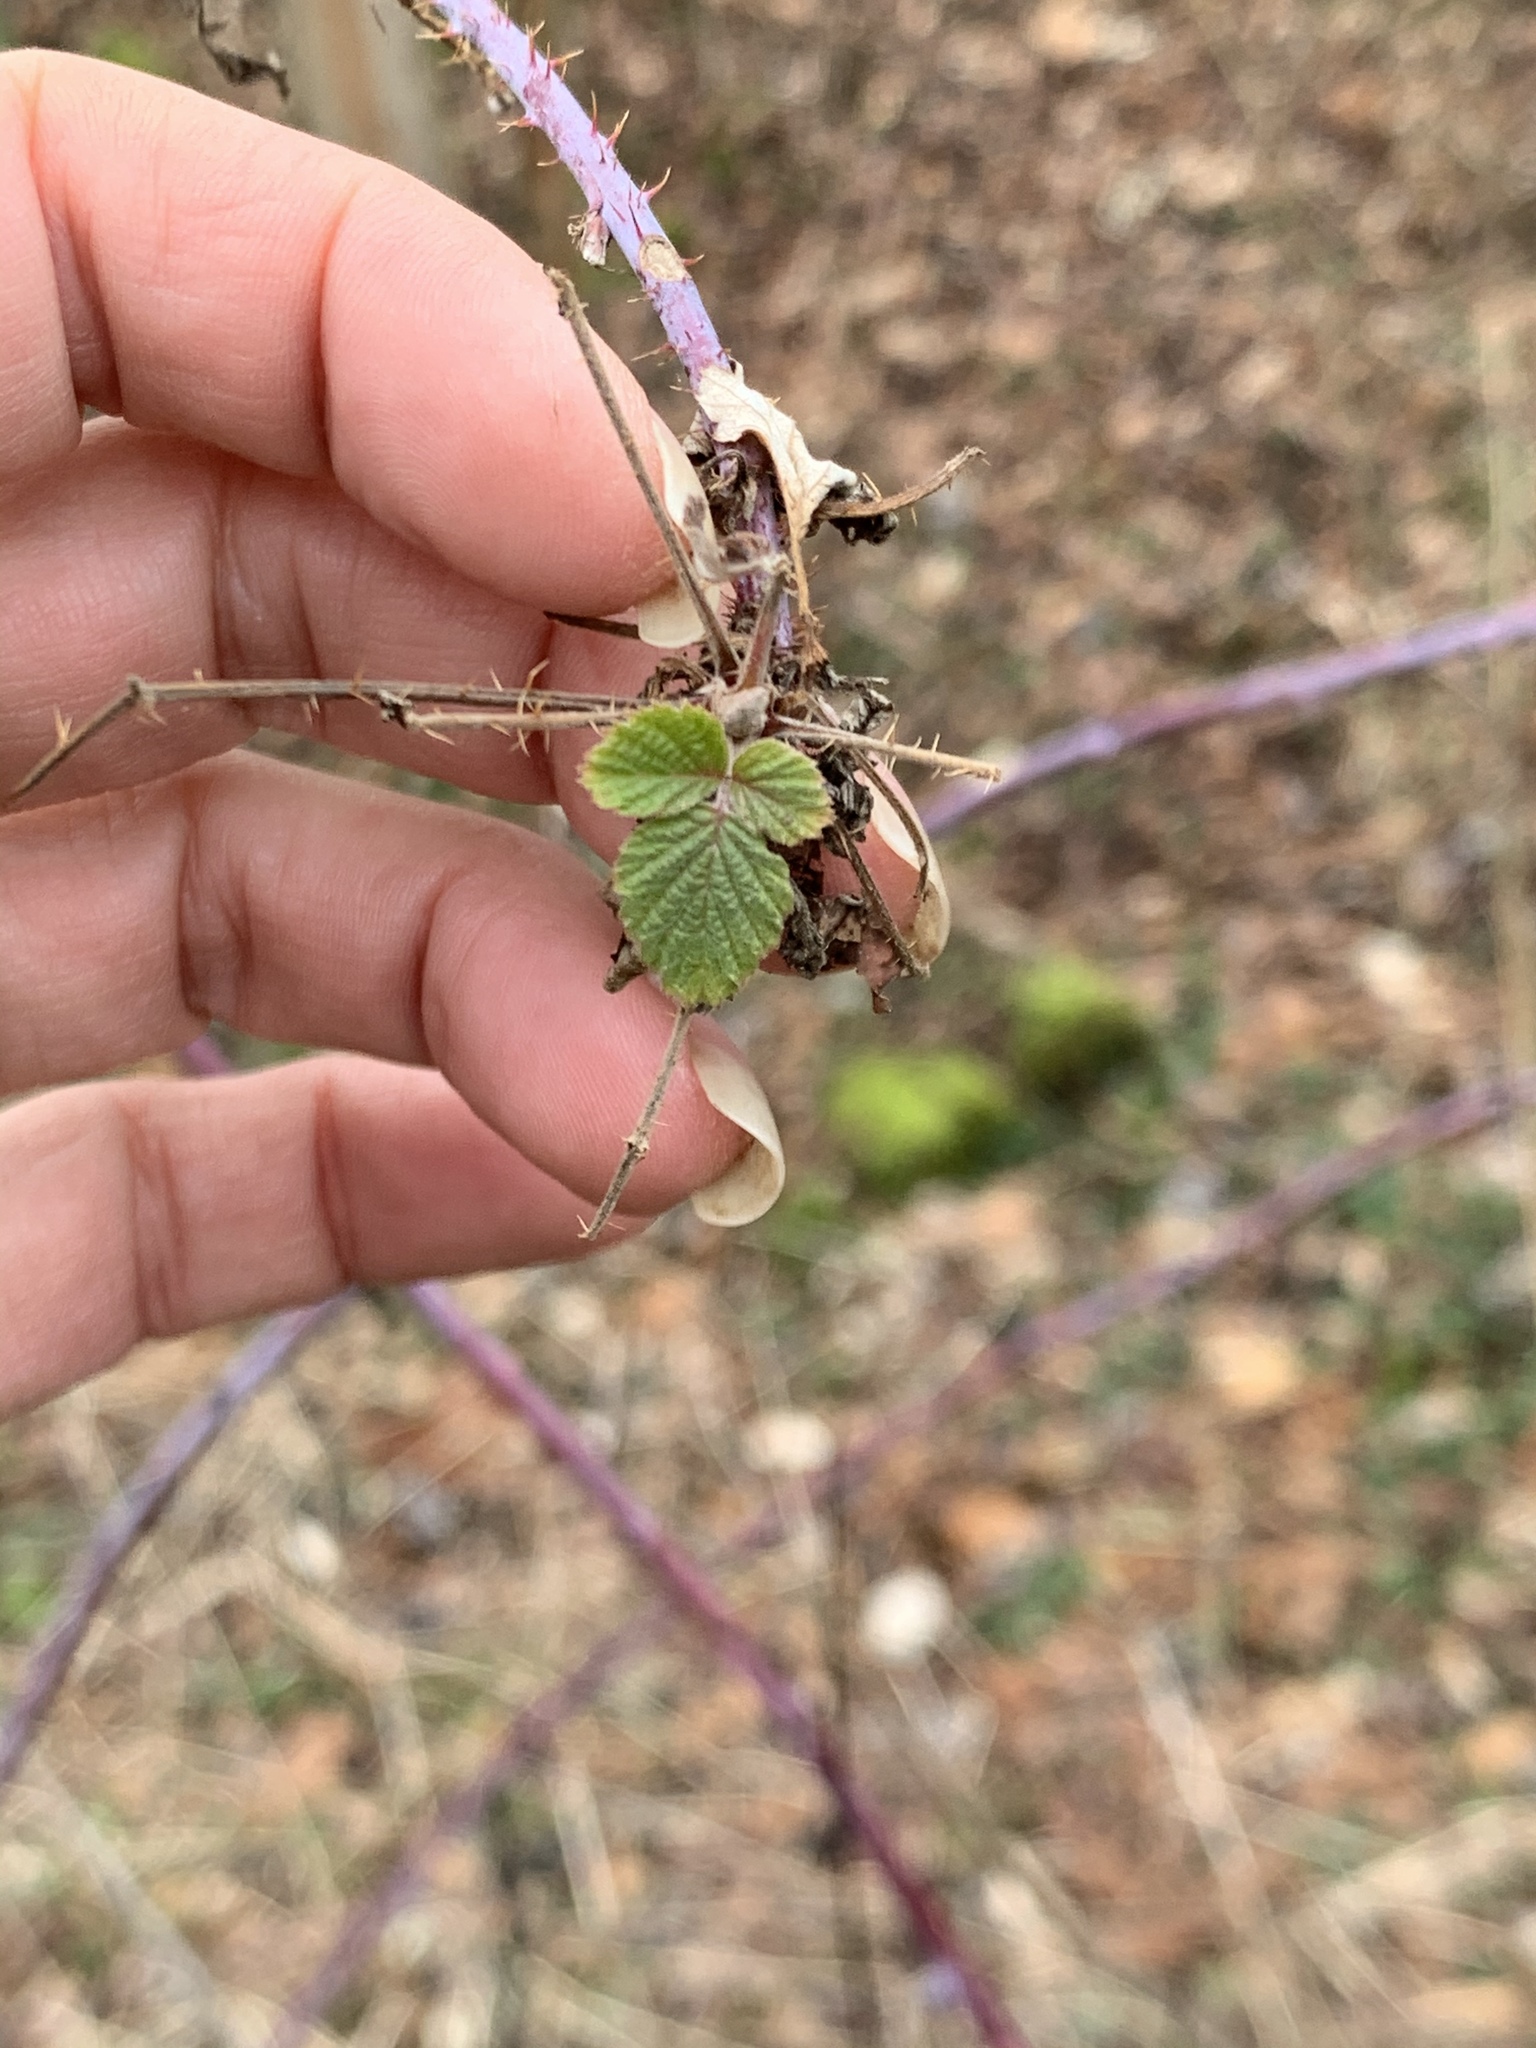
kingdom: Plantae
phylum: Tracheophyta
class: Magnoliopsida
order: Rosales
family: Rosaceae
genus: Rubus
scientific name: Rubus occidentalis
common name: Black raspberry
